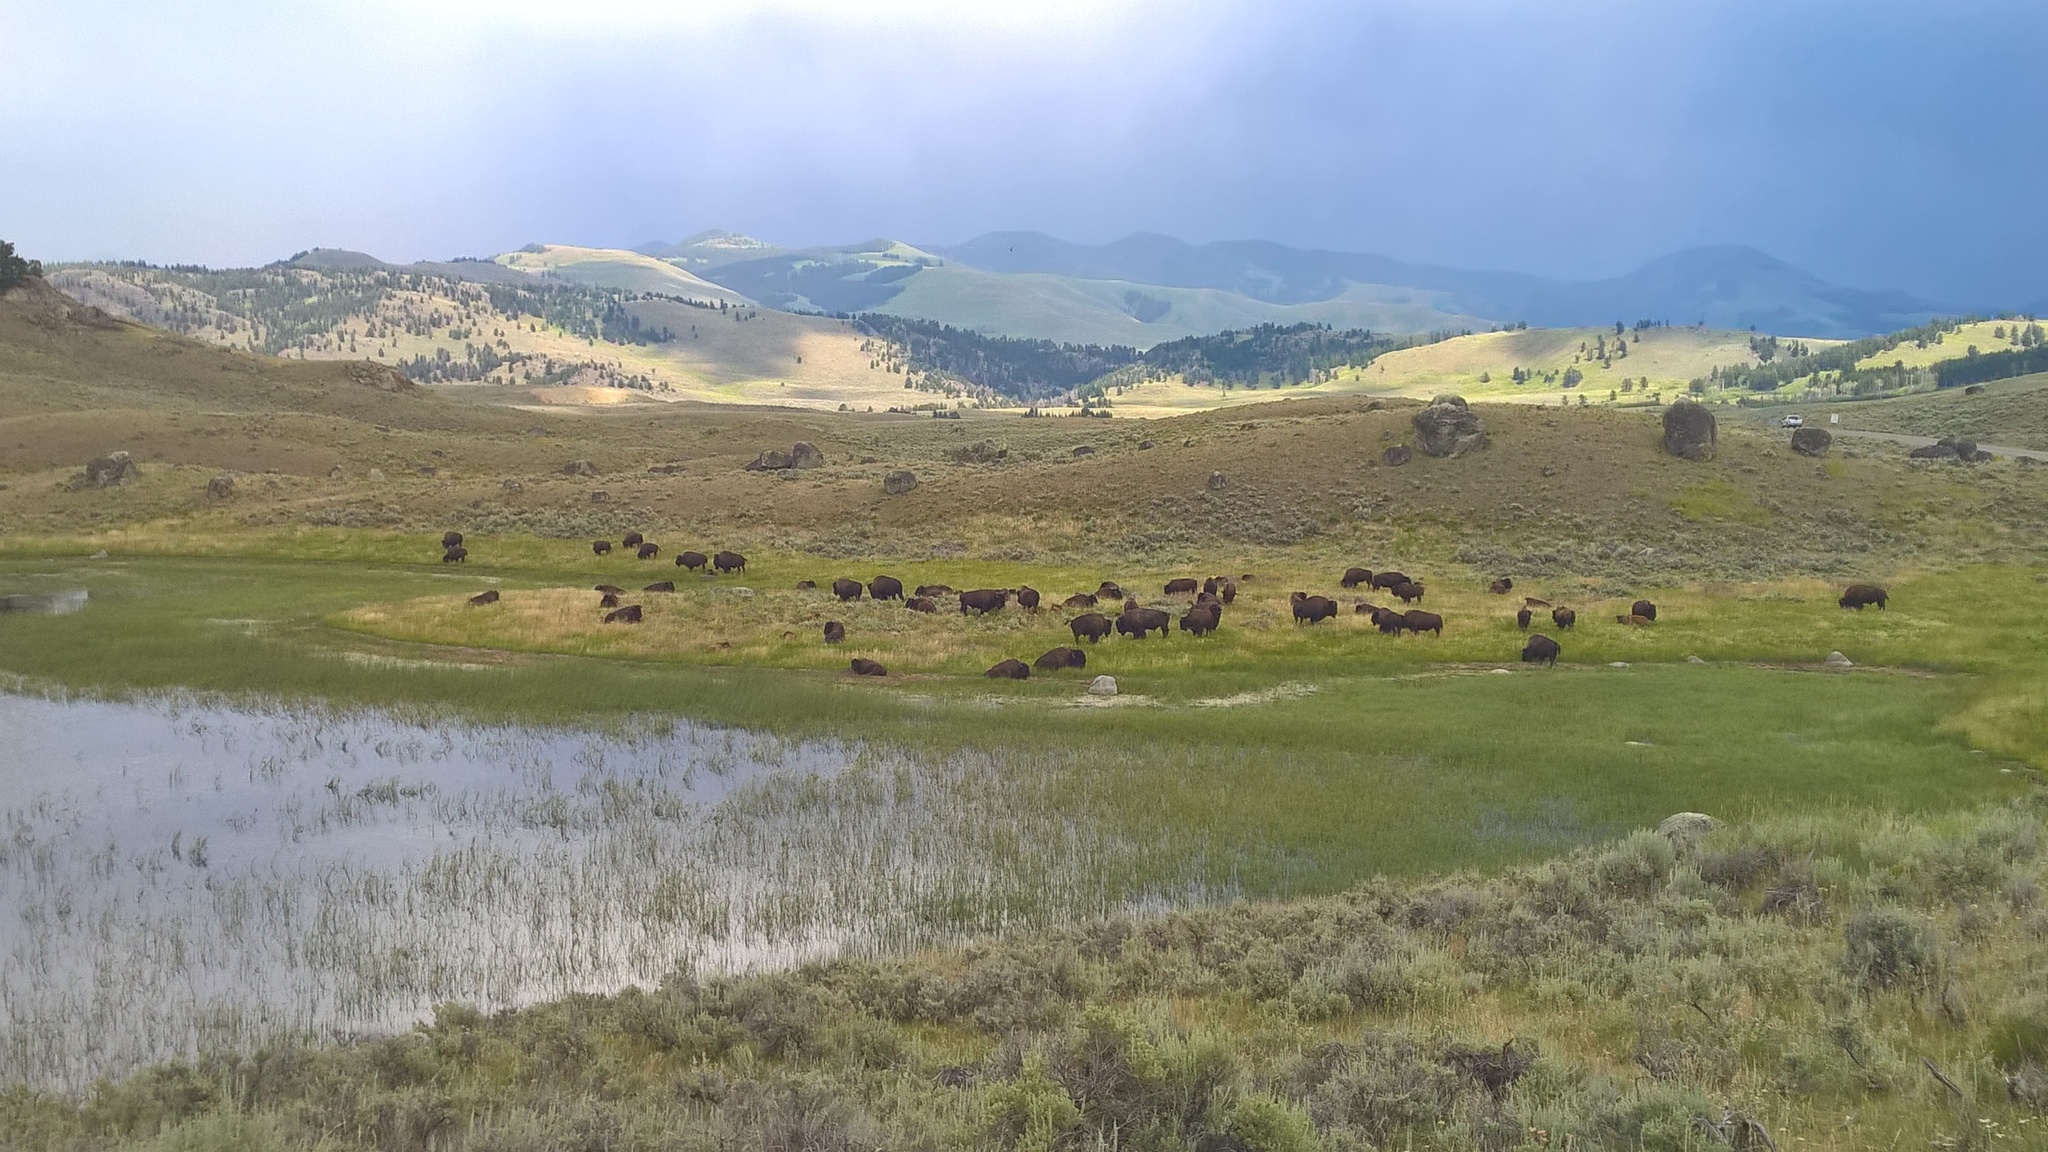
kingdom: Animalia
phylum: Chordata
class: Mammalia
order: Artiodactyla
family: Bovidae
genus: Bison
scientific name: Bison bison
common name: American bison
